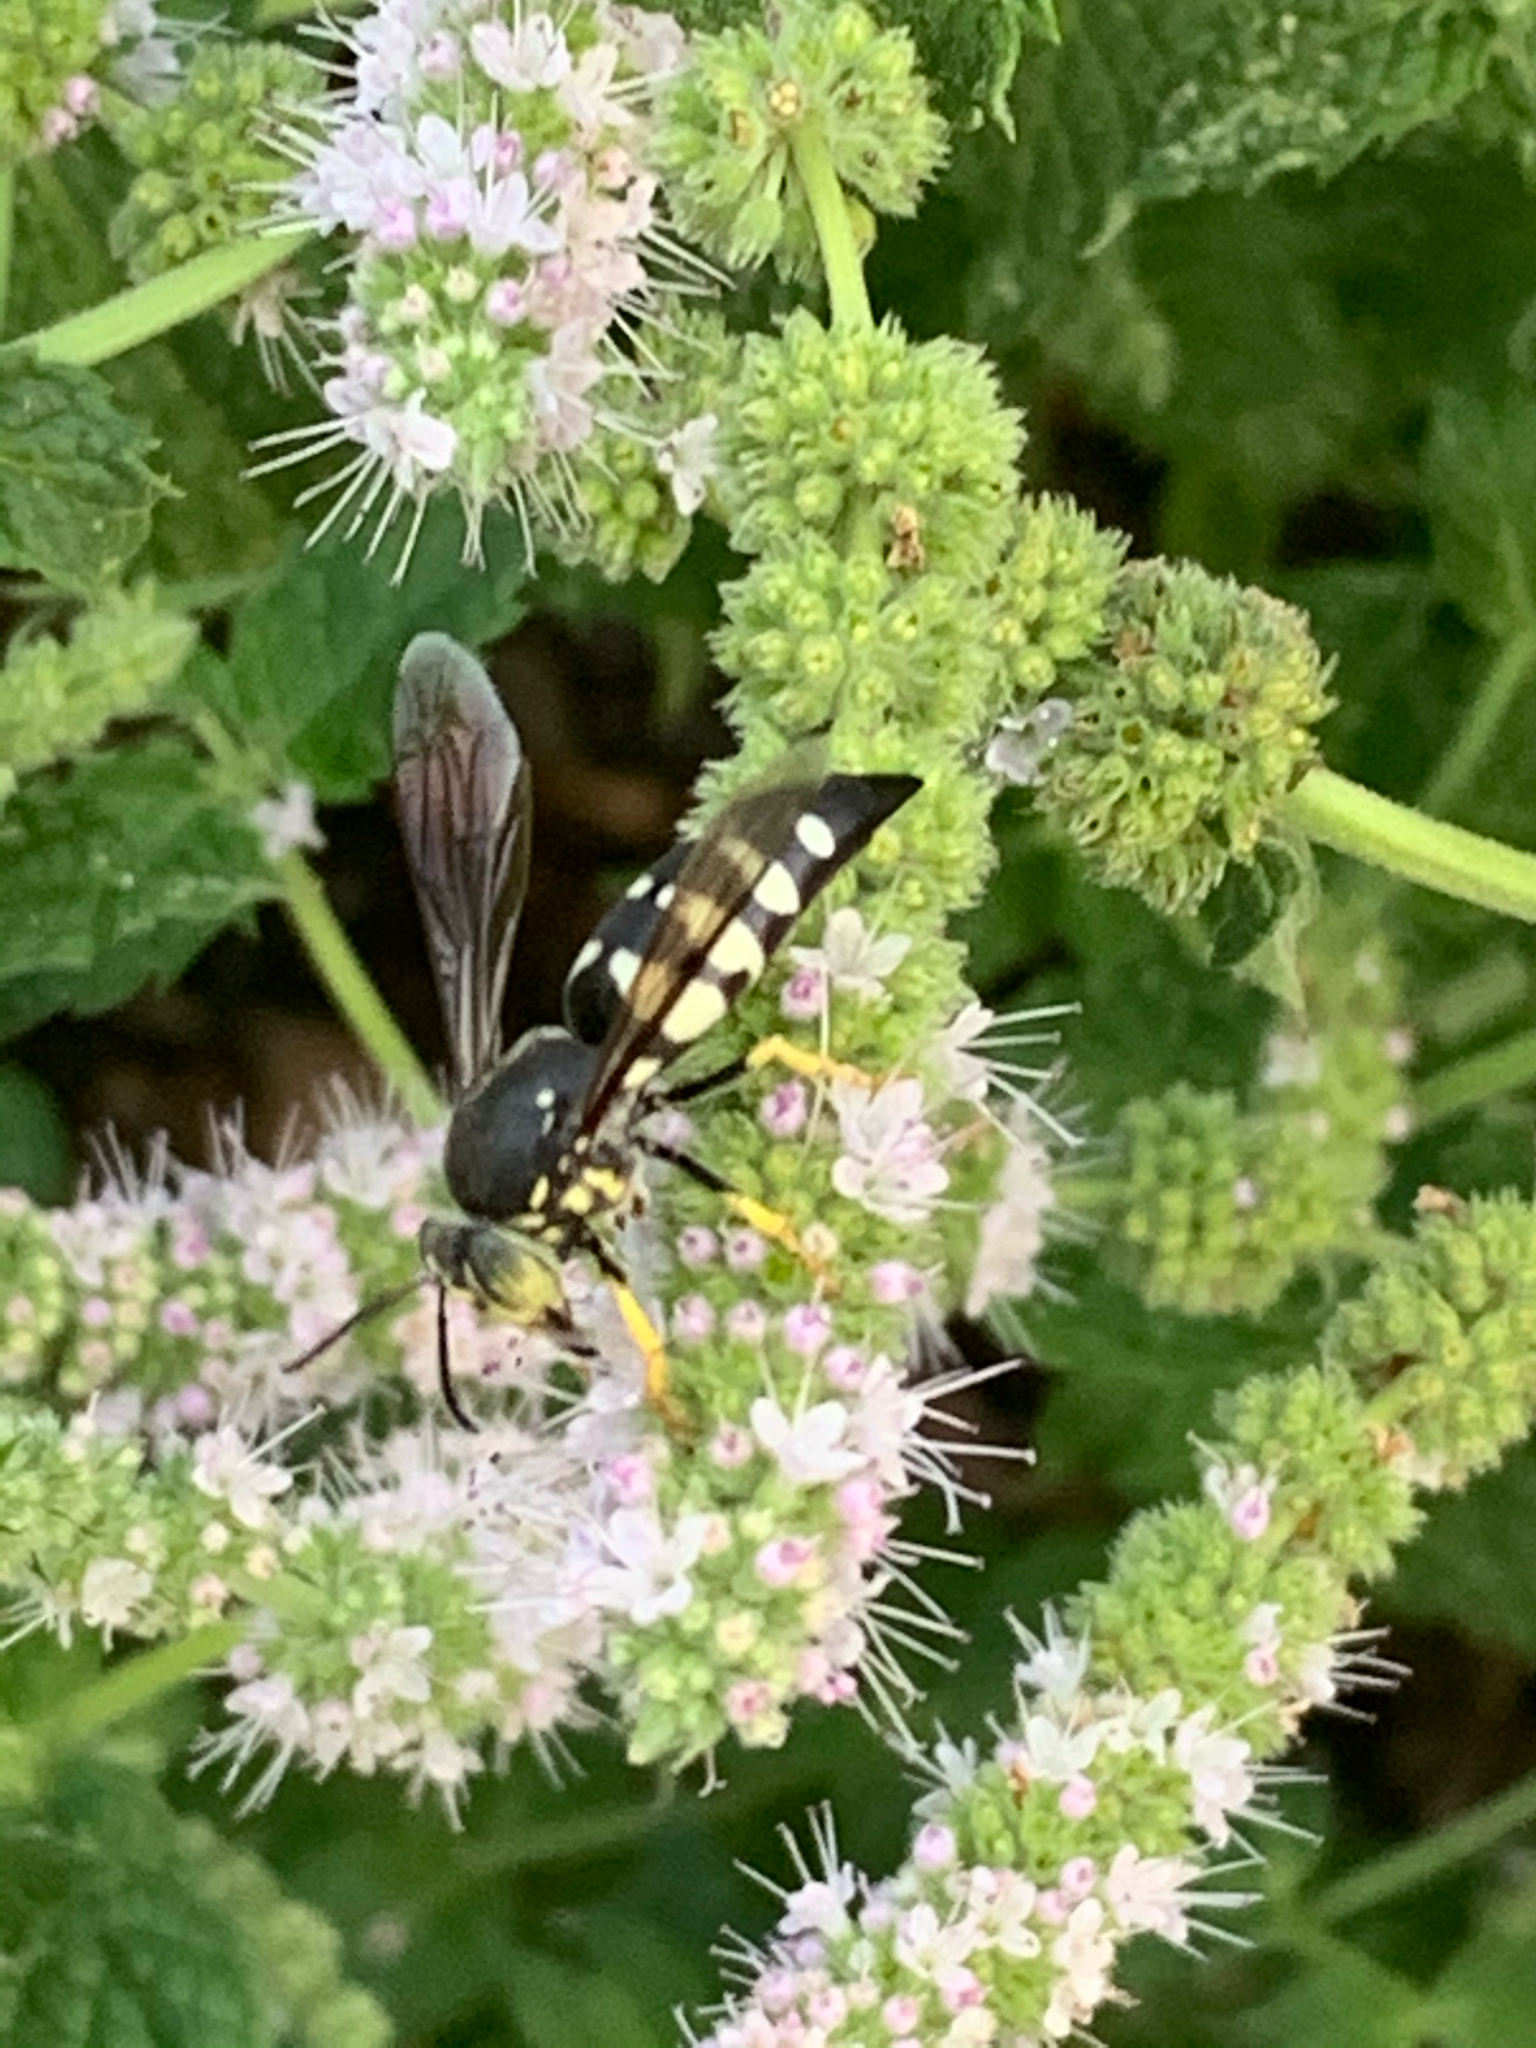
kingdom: Animalia
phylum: Arthropoda
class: Insecta
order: Hymenoptera
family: Crabronidae
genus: Bicyrtes
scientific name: Bicyrtes quadrifasciatus
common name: Four-banded stink bug hunter wasp
